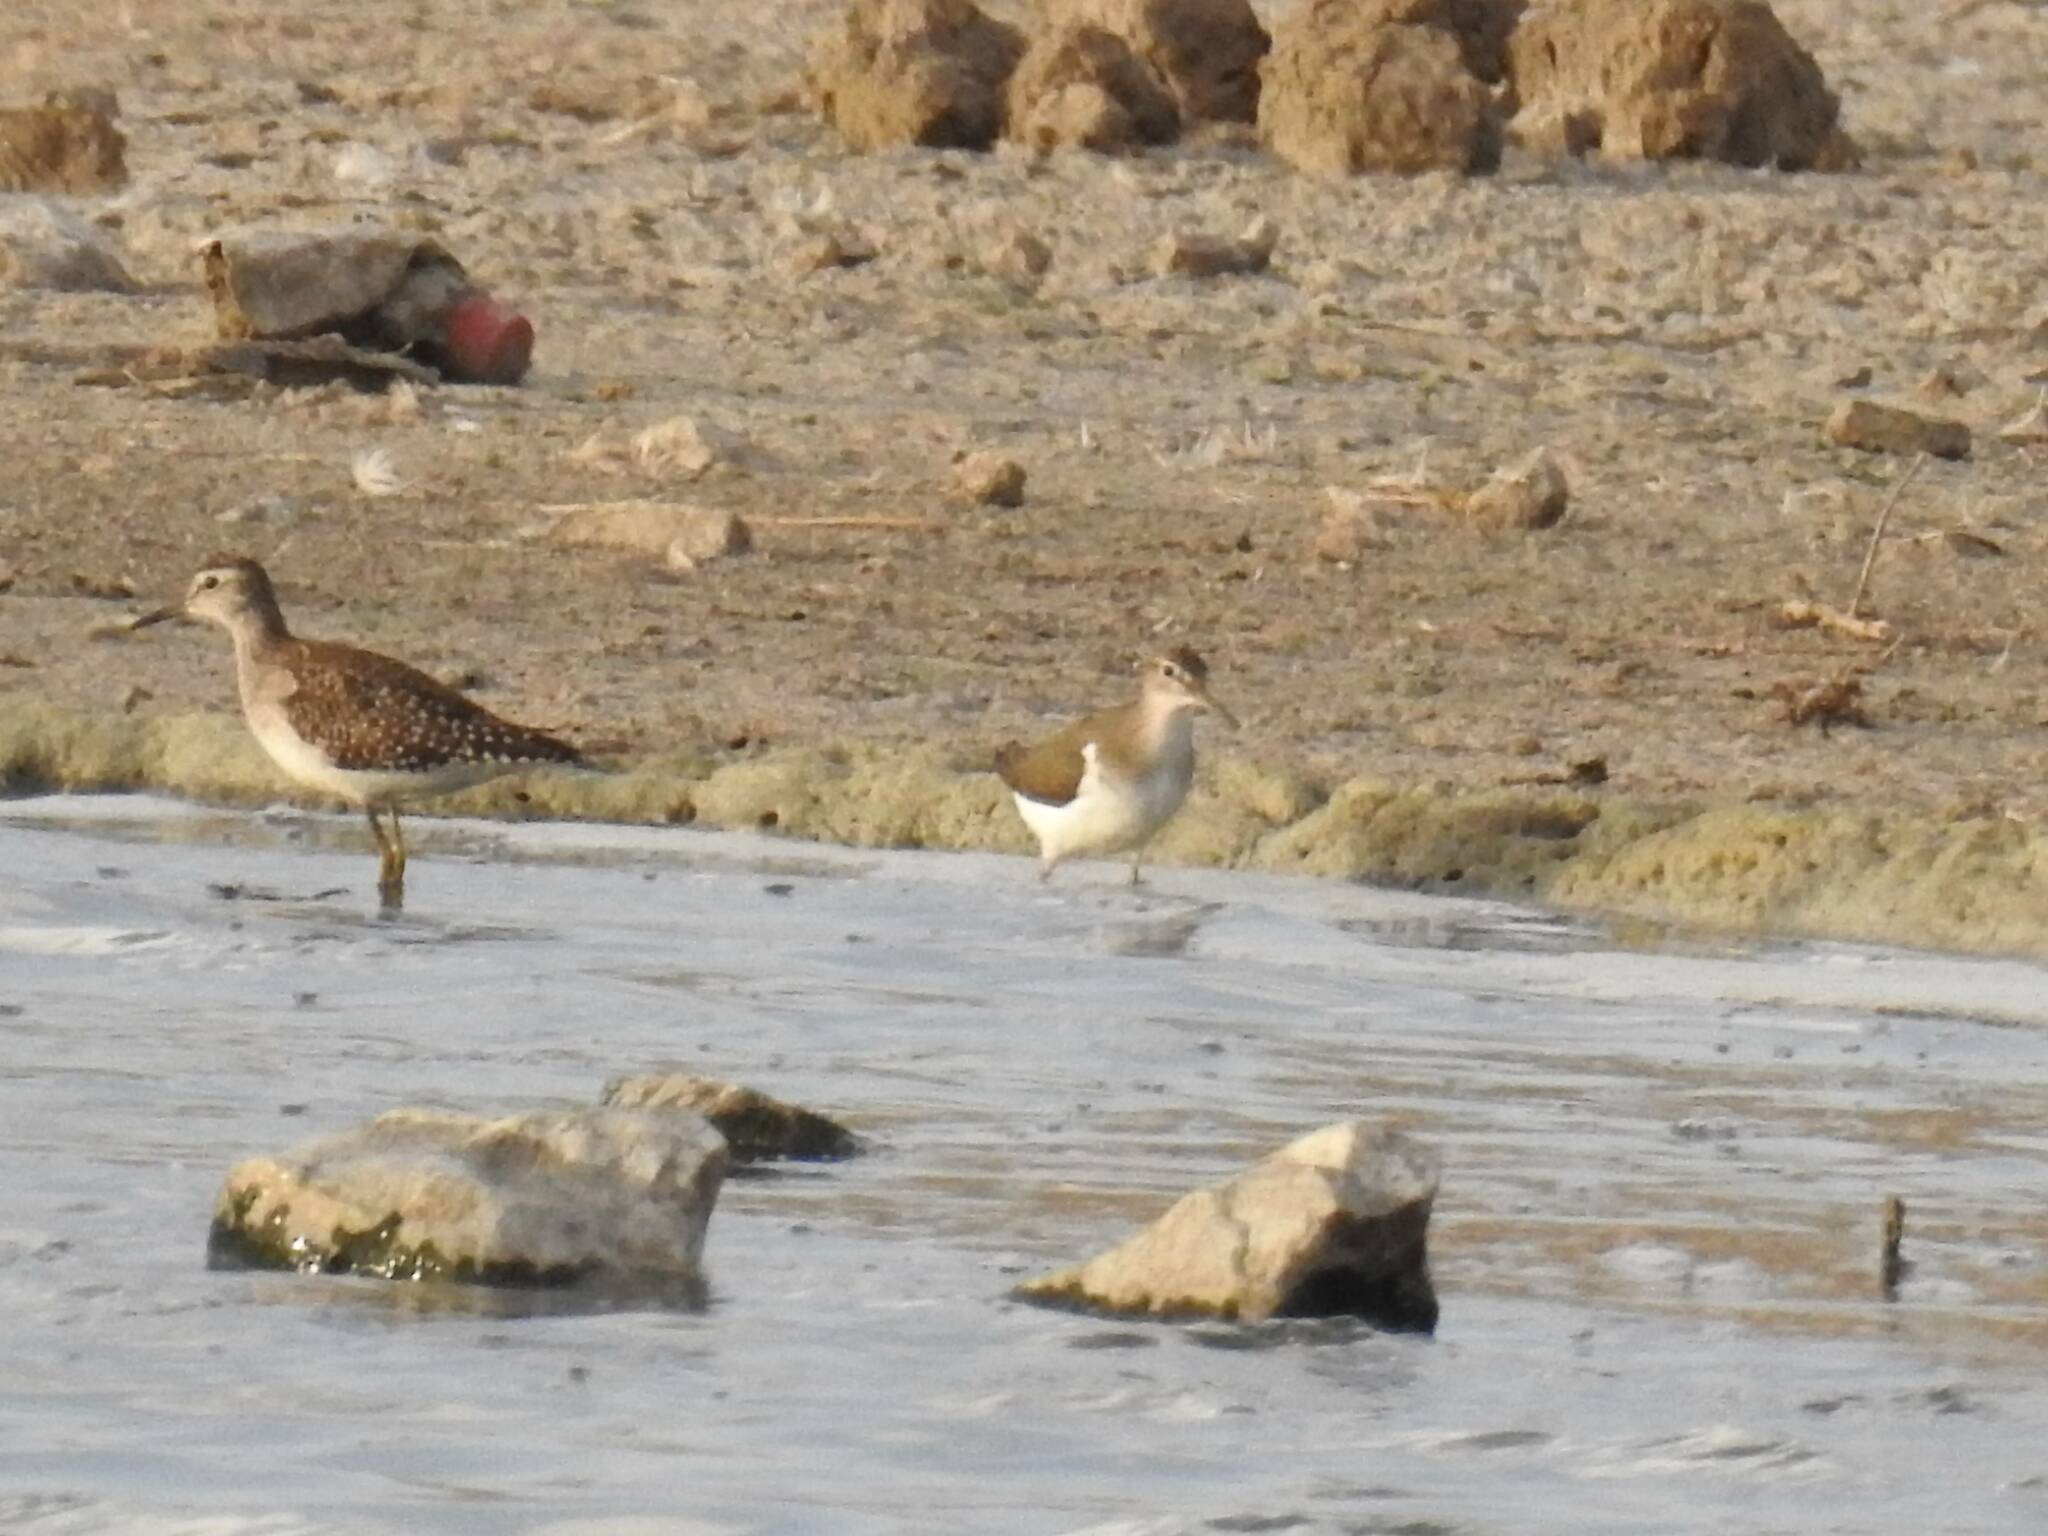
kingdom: Animalia
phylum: Chordata
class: Aves
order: Charadriiformes
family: Scolopacidae
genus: Actitis
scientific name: Actitis hypoleucos
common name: Common sandpiper
